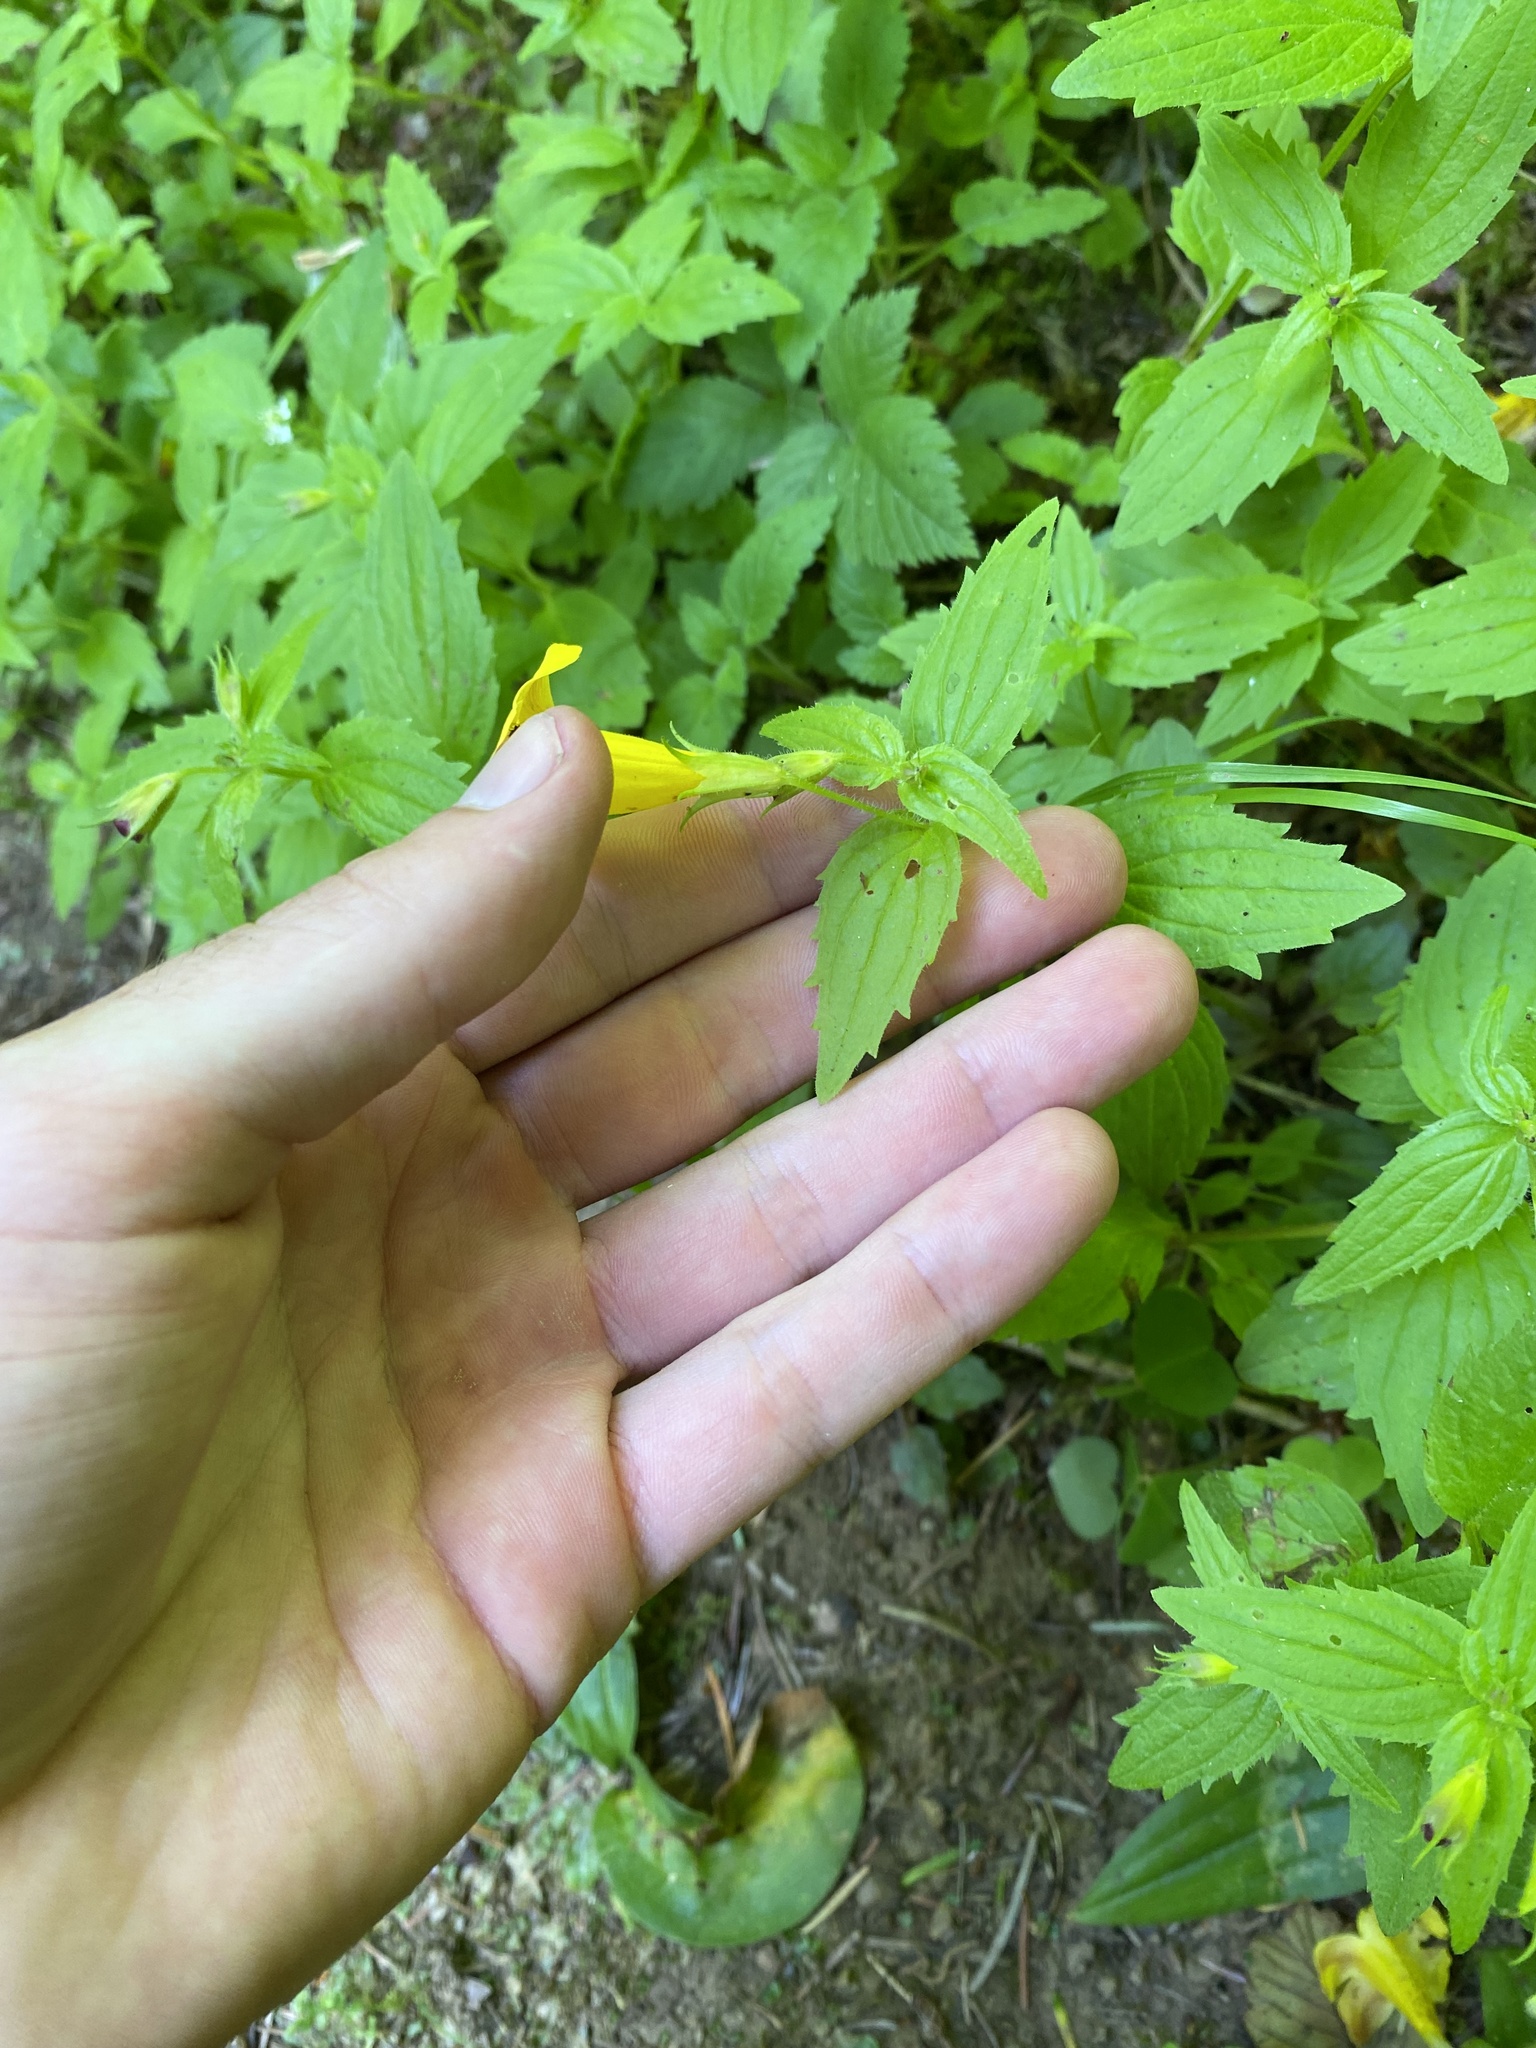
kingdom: Plantae
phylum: Tracheophyta
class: Magnoliopsida
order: Lamiales
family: Phrymaceae
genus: Erythranthe
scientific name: Erythranthe dentata
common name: Coastal monkeyflower
